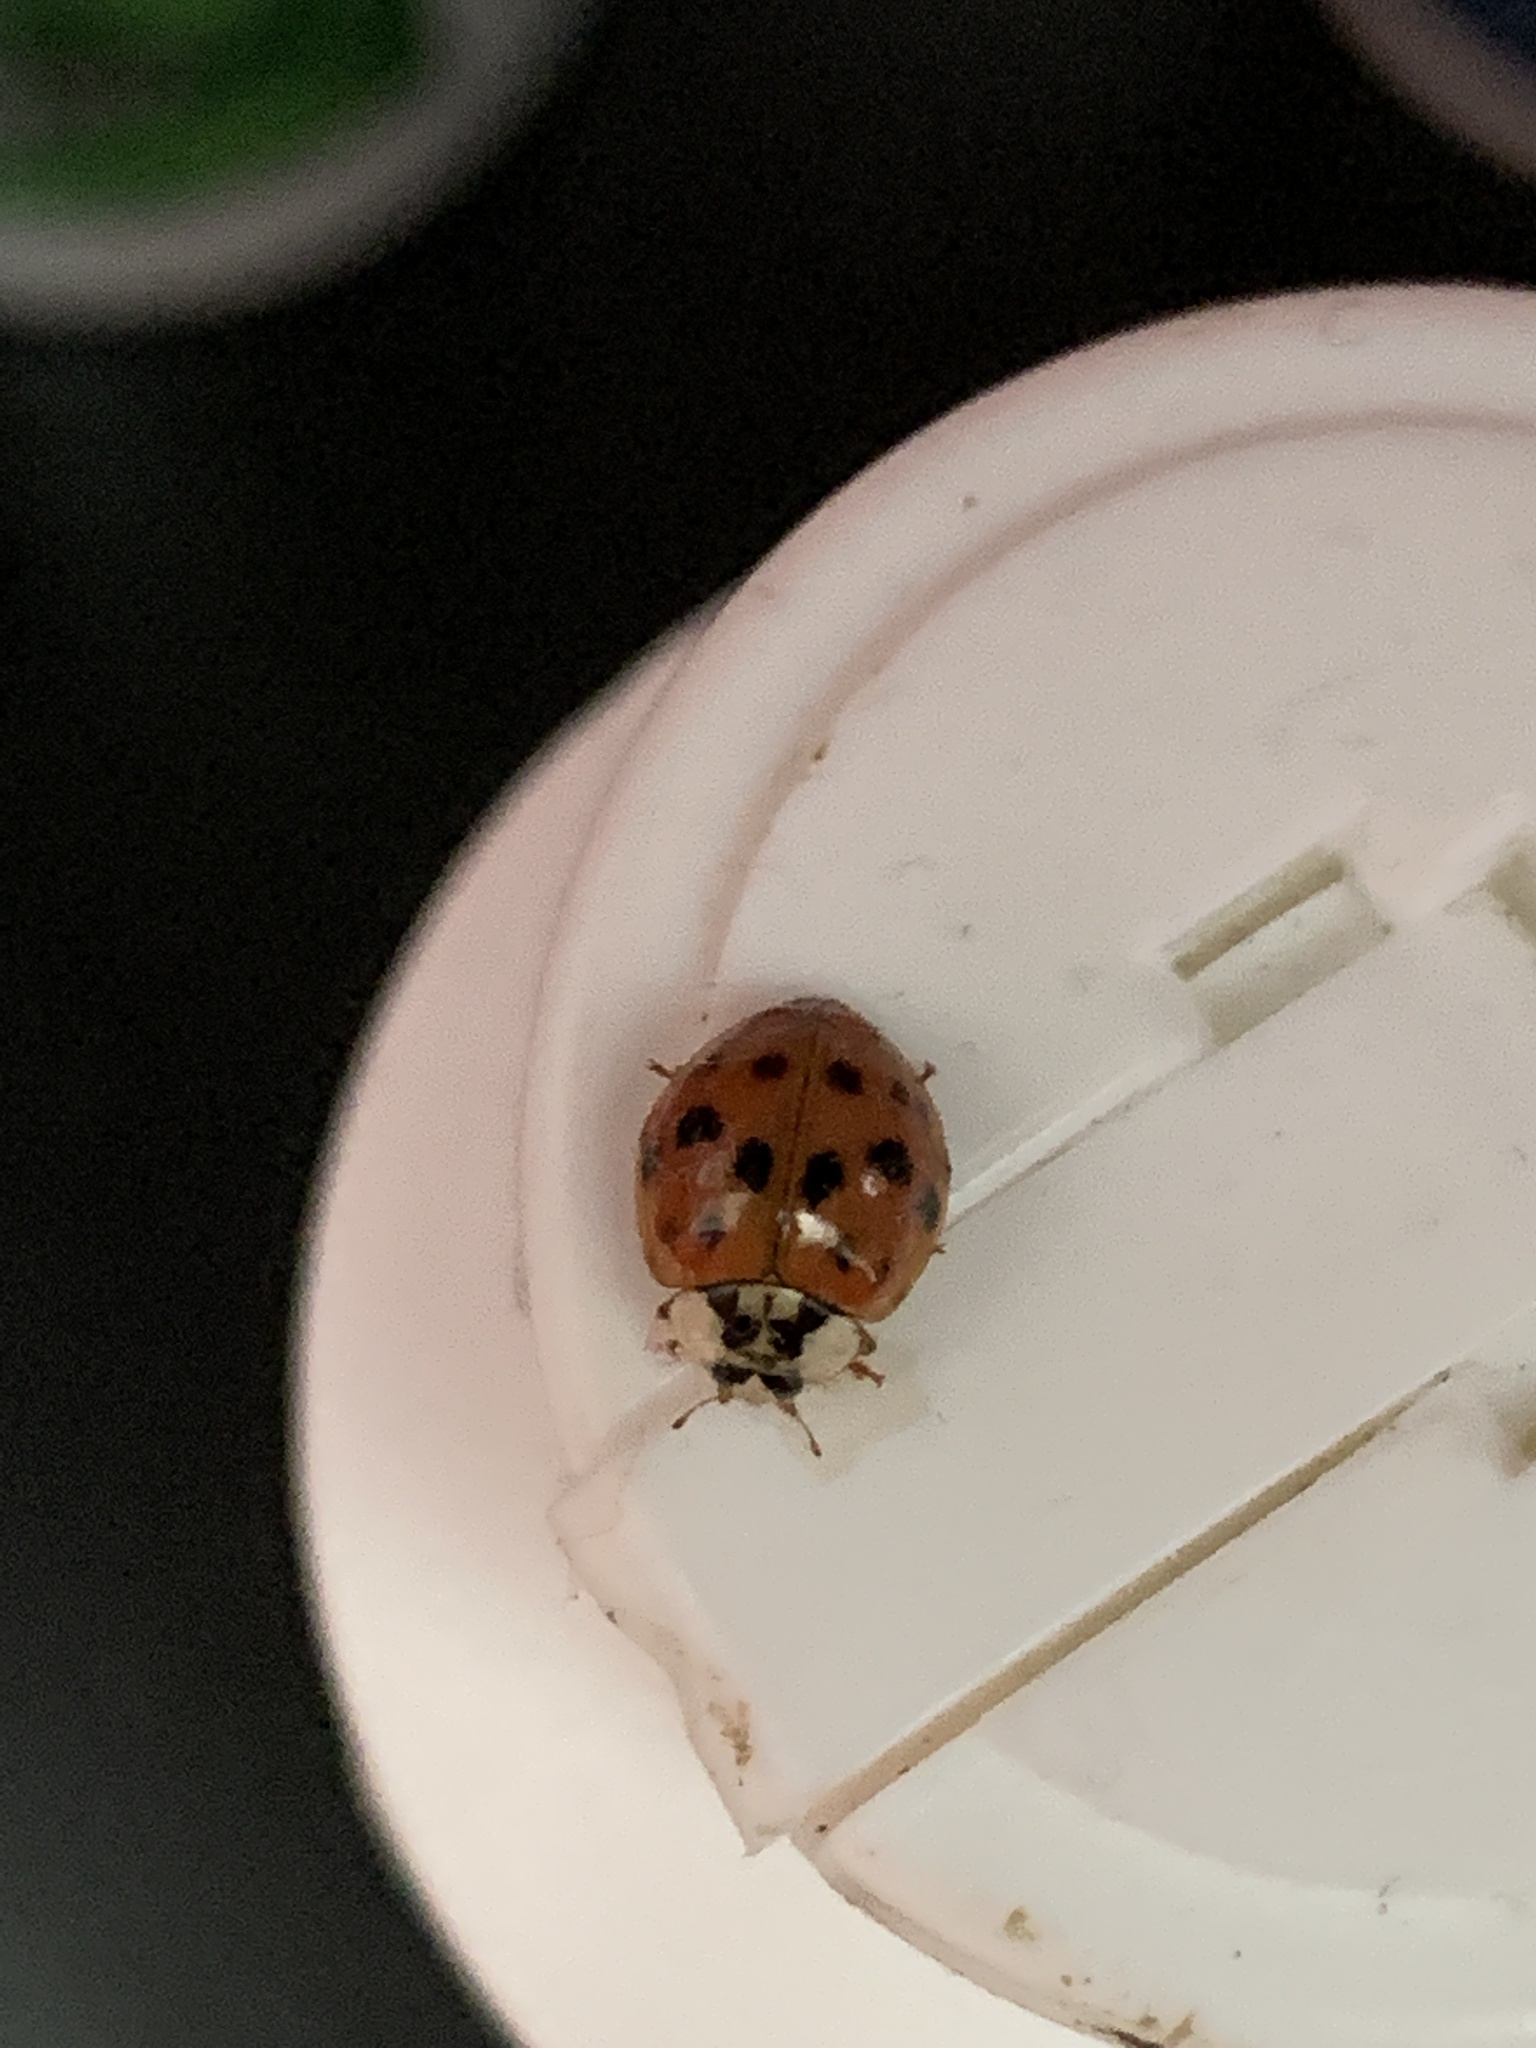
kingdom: Animalia
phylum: Arthropoda
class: Insecta
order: Coleoptera
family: Coccinellidae
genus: Harmonia
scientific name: Harmonia axyridis
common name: Harlequin ladybird
